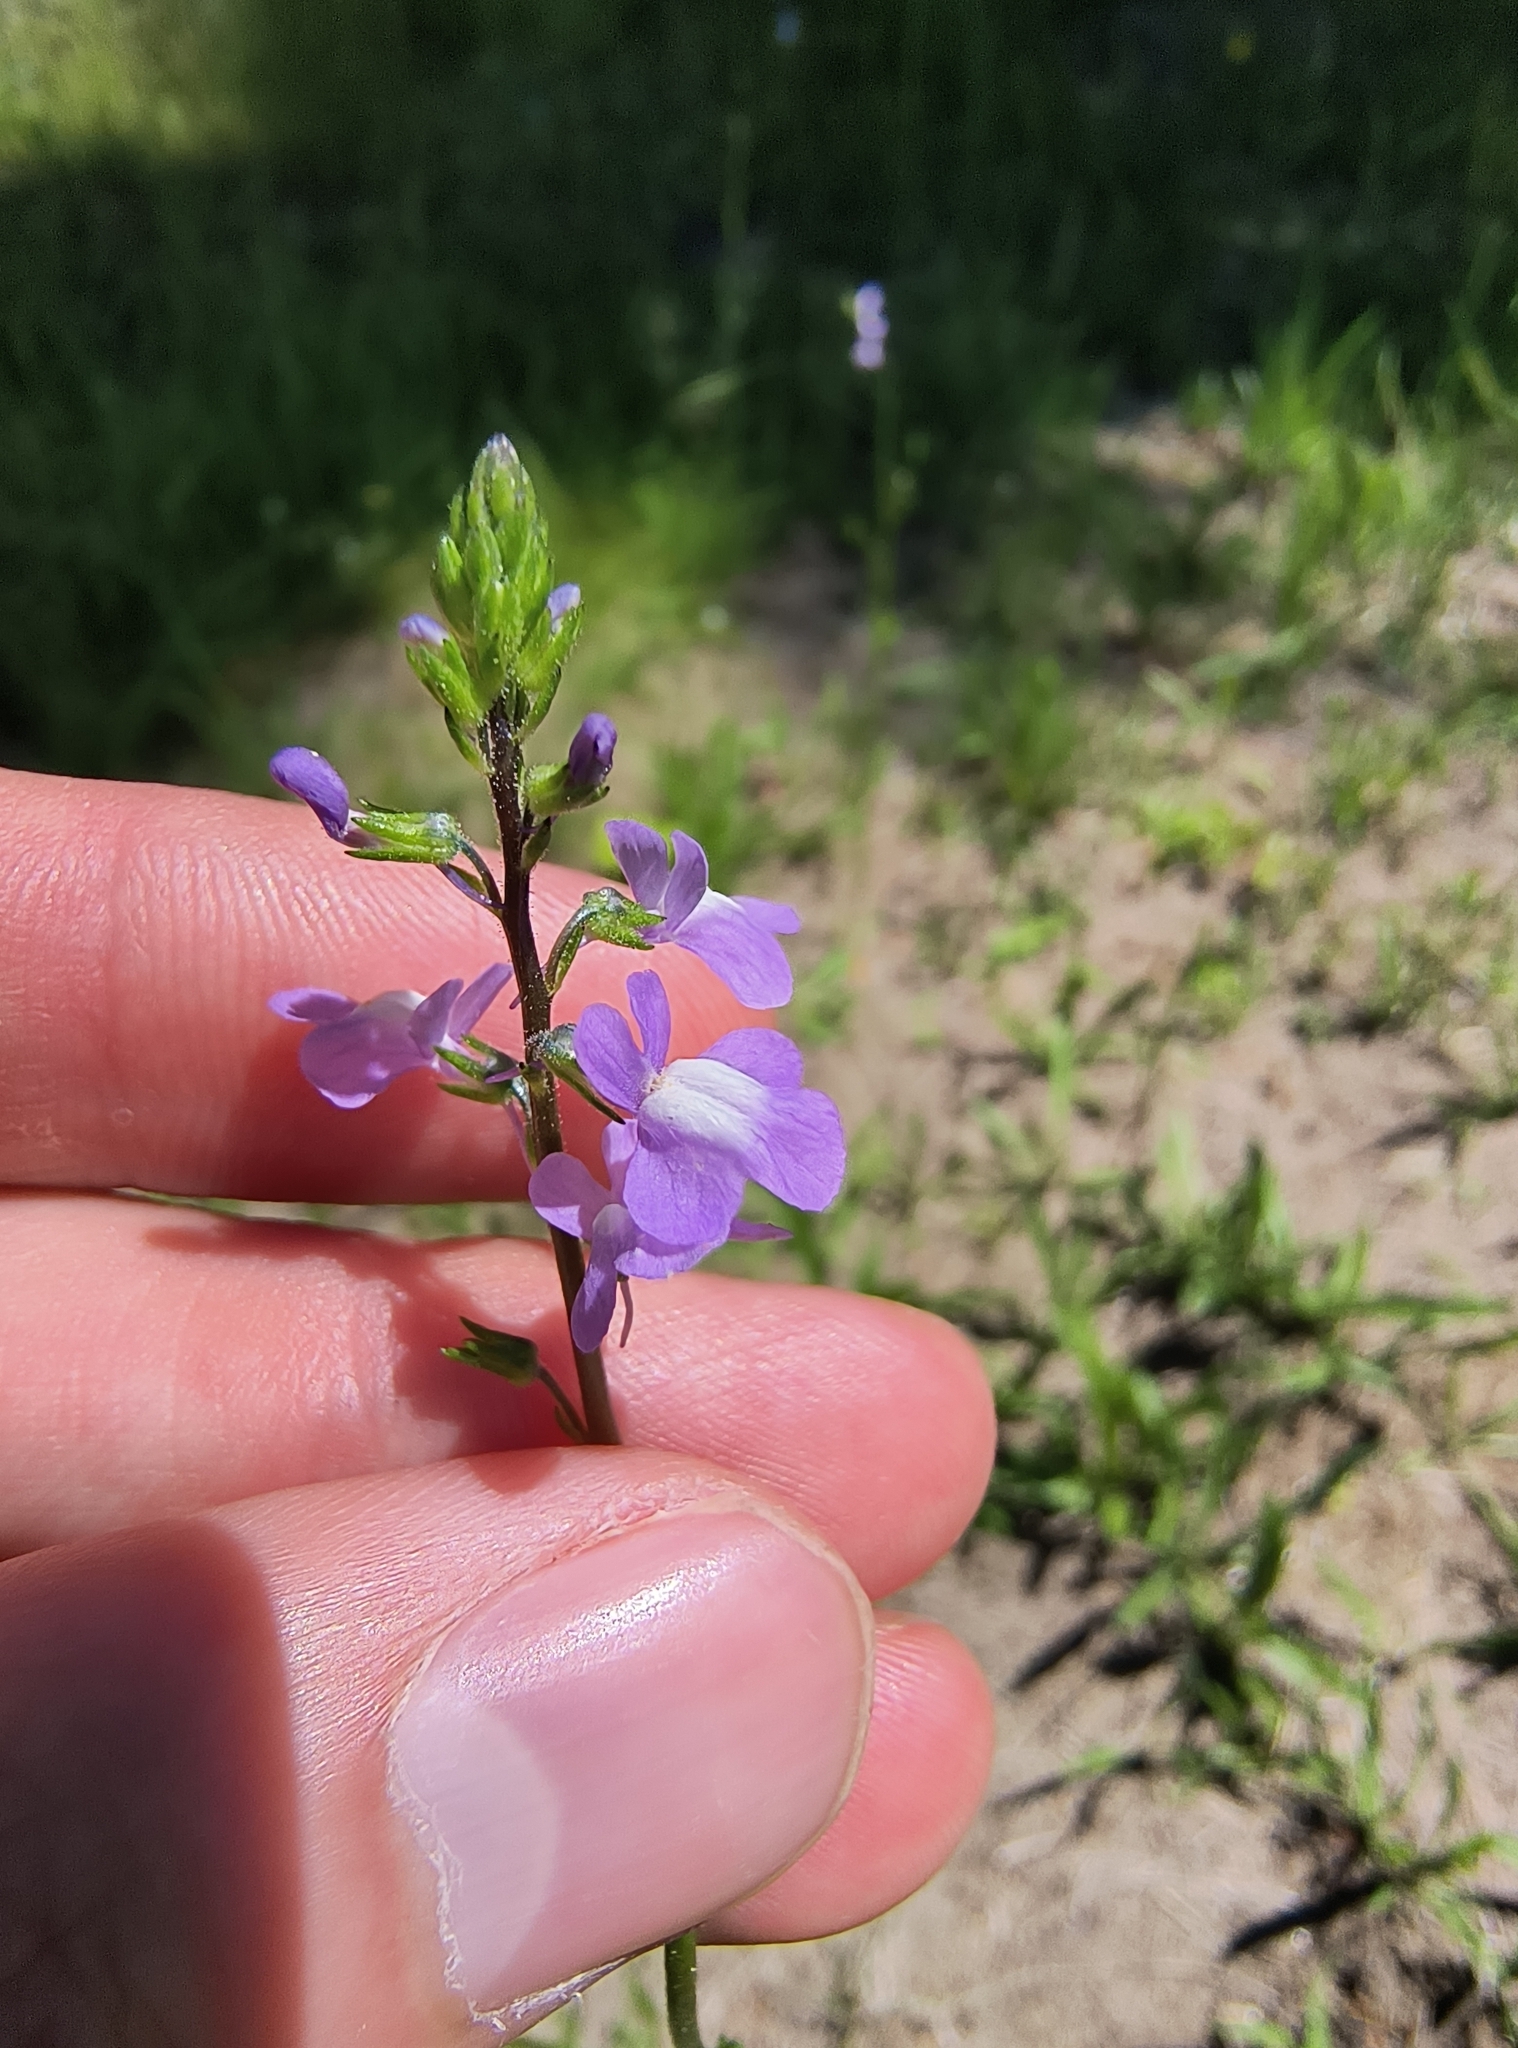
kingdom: Plantae
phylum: Tracheophyta
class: Magnoliopsida
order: Lamiales
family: Plantaginaceae
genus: Nuttallanthus
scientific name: Nuttallanthus canadensis
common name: Blue toadflax
